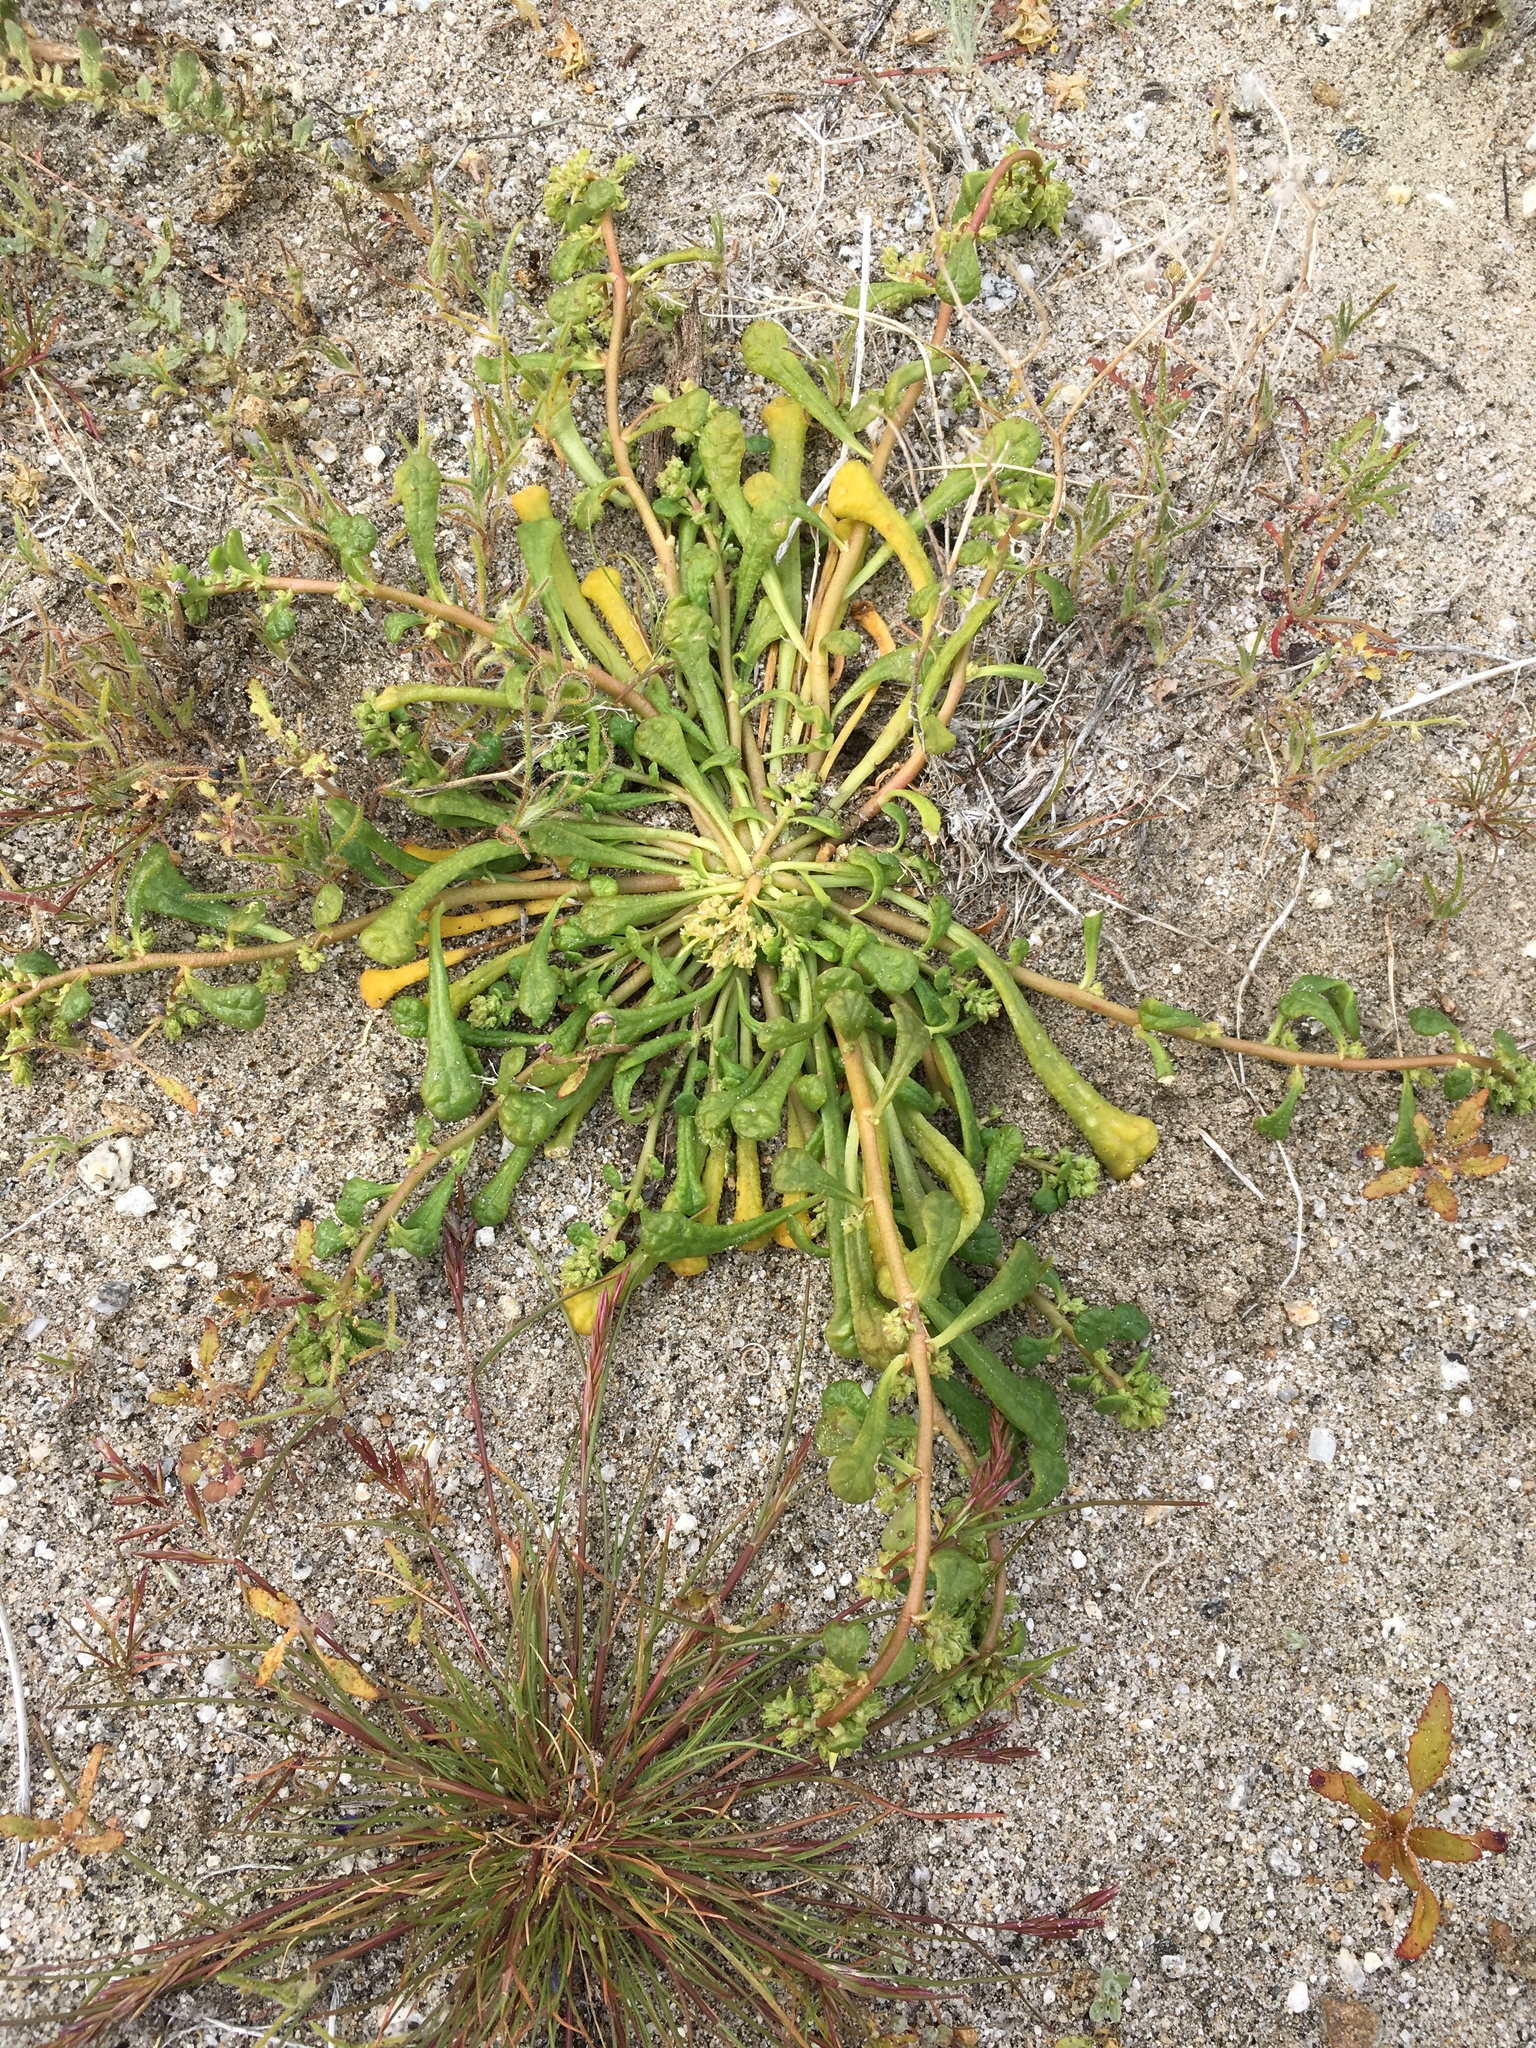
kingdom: Plantae
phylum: Tracheophyta
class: Magnoliopsida
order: Caryophyllales
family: Montiaceae
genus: Calyptridium
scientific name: Calyptridium monandrum
